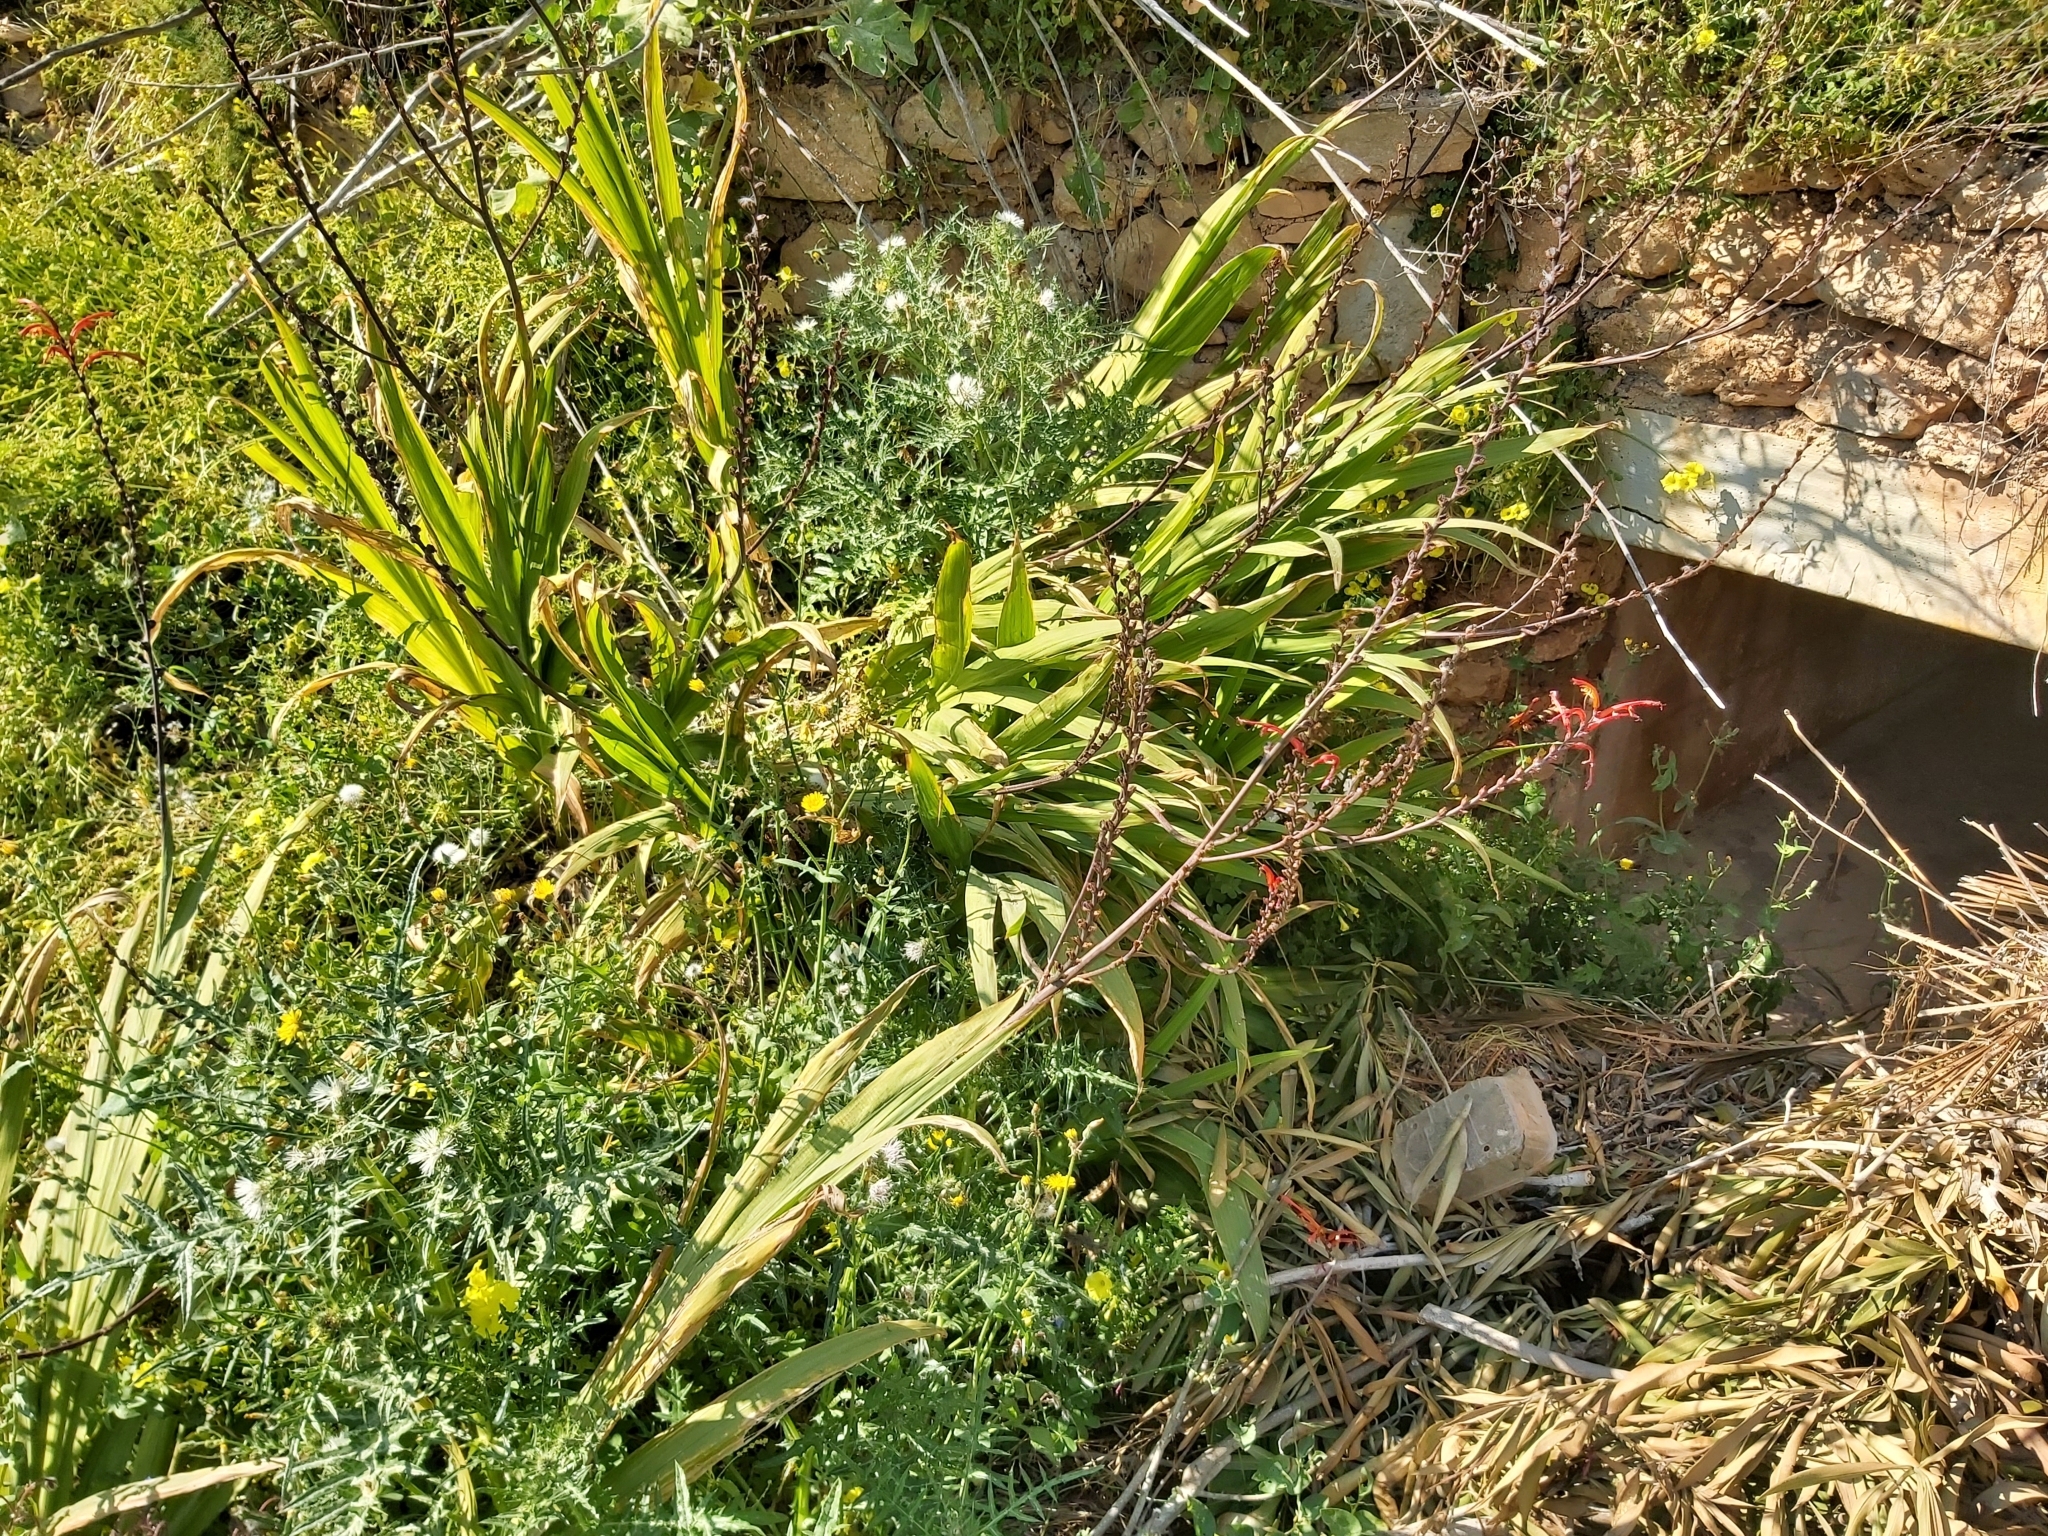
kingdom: Plantae
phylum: Tracheophyta
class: Liliopsida
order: Asparagales
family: Iridaceae
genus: Chasmanthe
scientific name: Chasmanthe floribunda
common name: African cornflag
